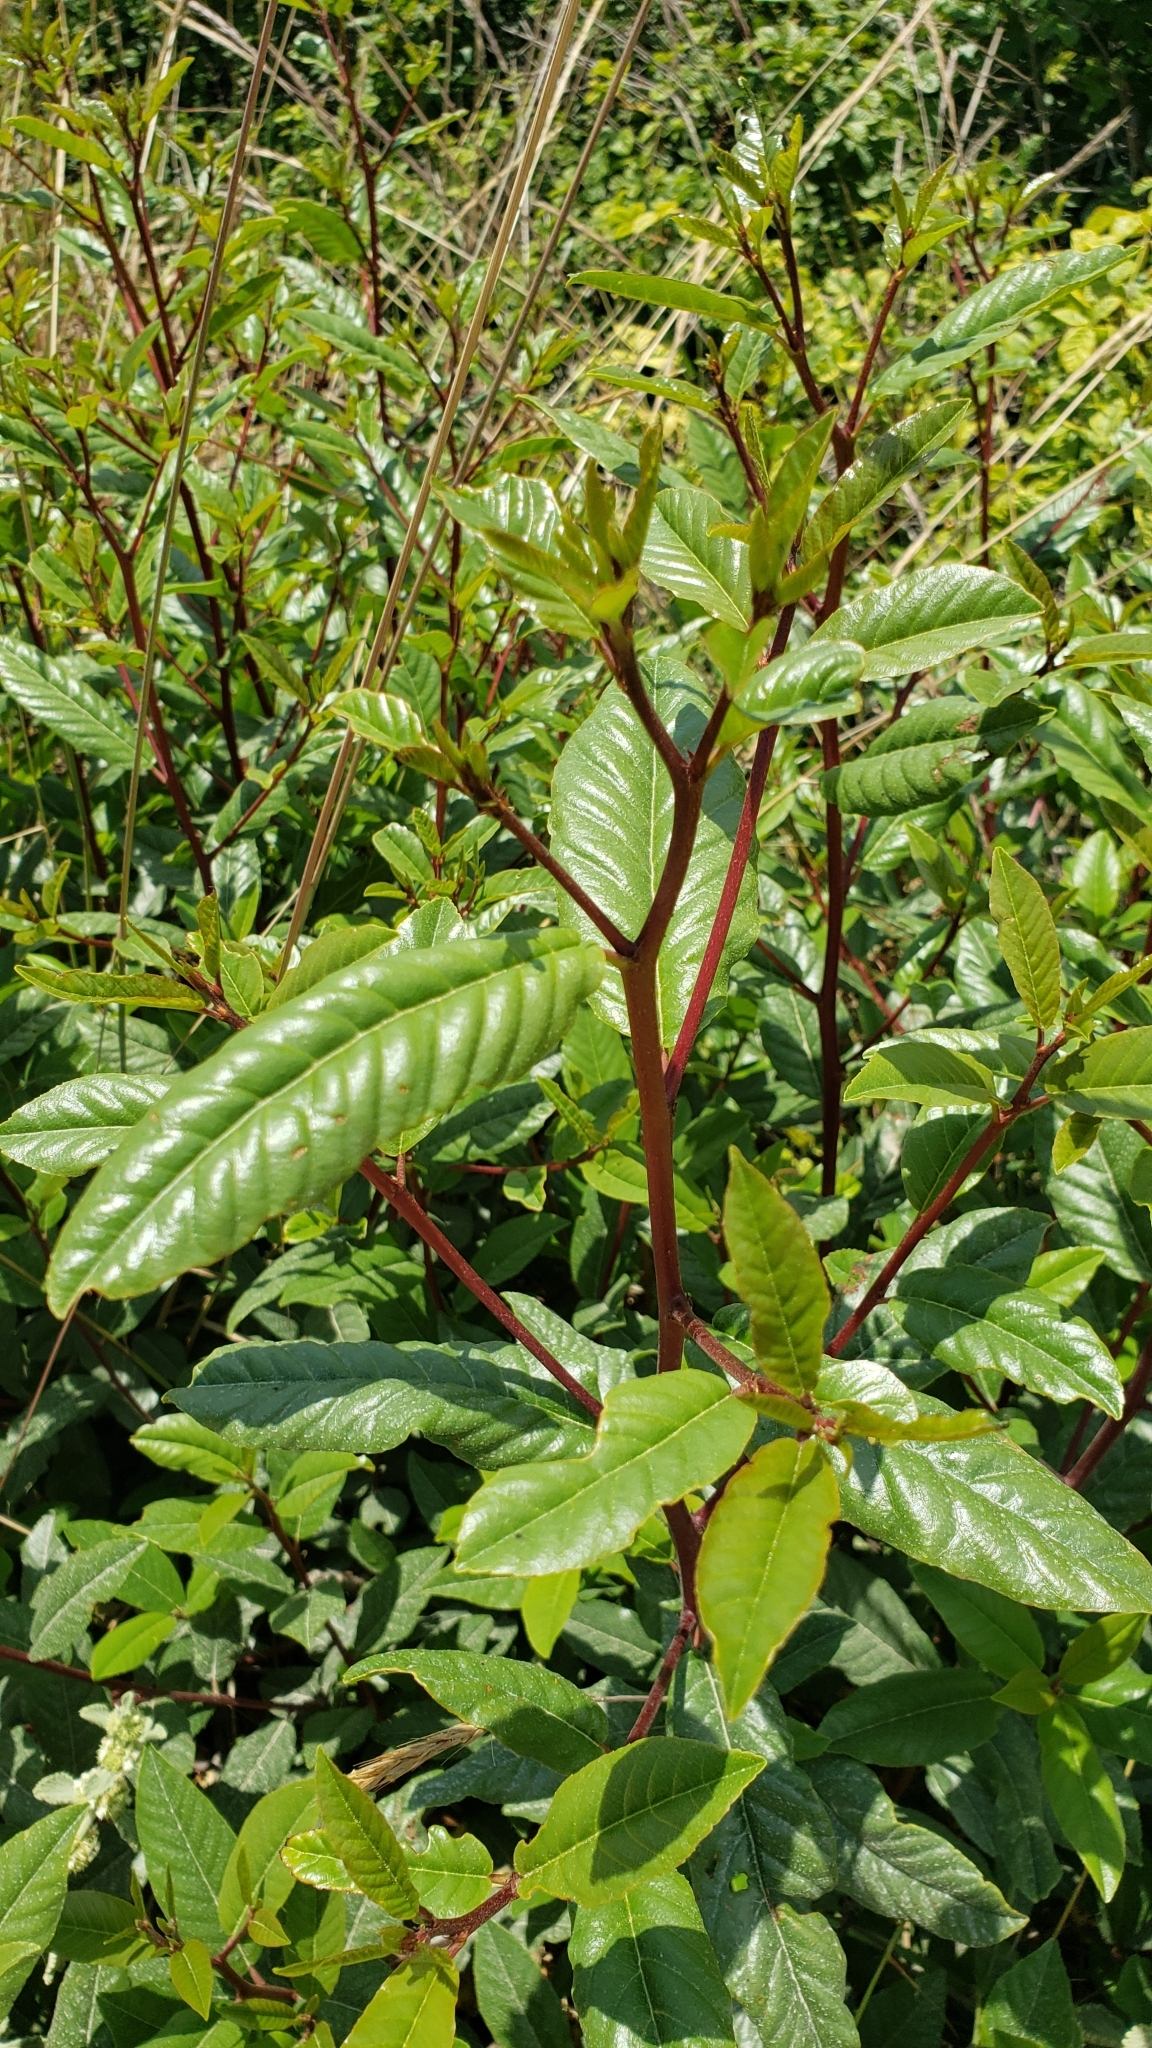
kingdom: Plantae
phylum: Tracheophyta
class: Magnoliopsida
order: Rosales
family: Rhamnaceae
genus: Frangula
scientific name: Frangula californica
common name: California buckthorn
